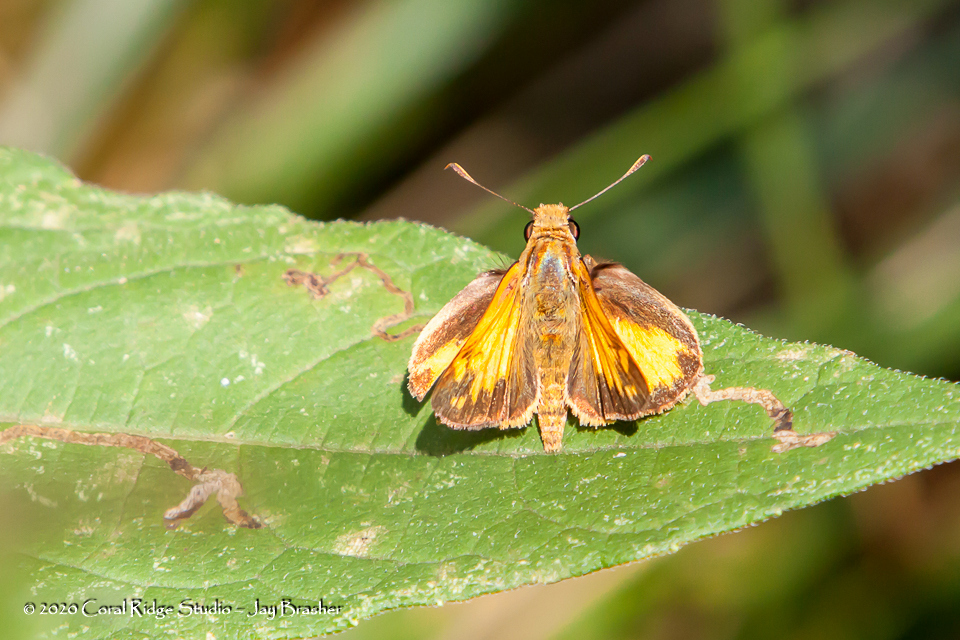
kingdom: Animalia
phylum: Arthropoda
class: Insecta
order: Lepidoptera
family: Hesperiidae
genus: Lon
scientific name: Lon zabulon
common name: Zabulon skipper
